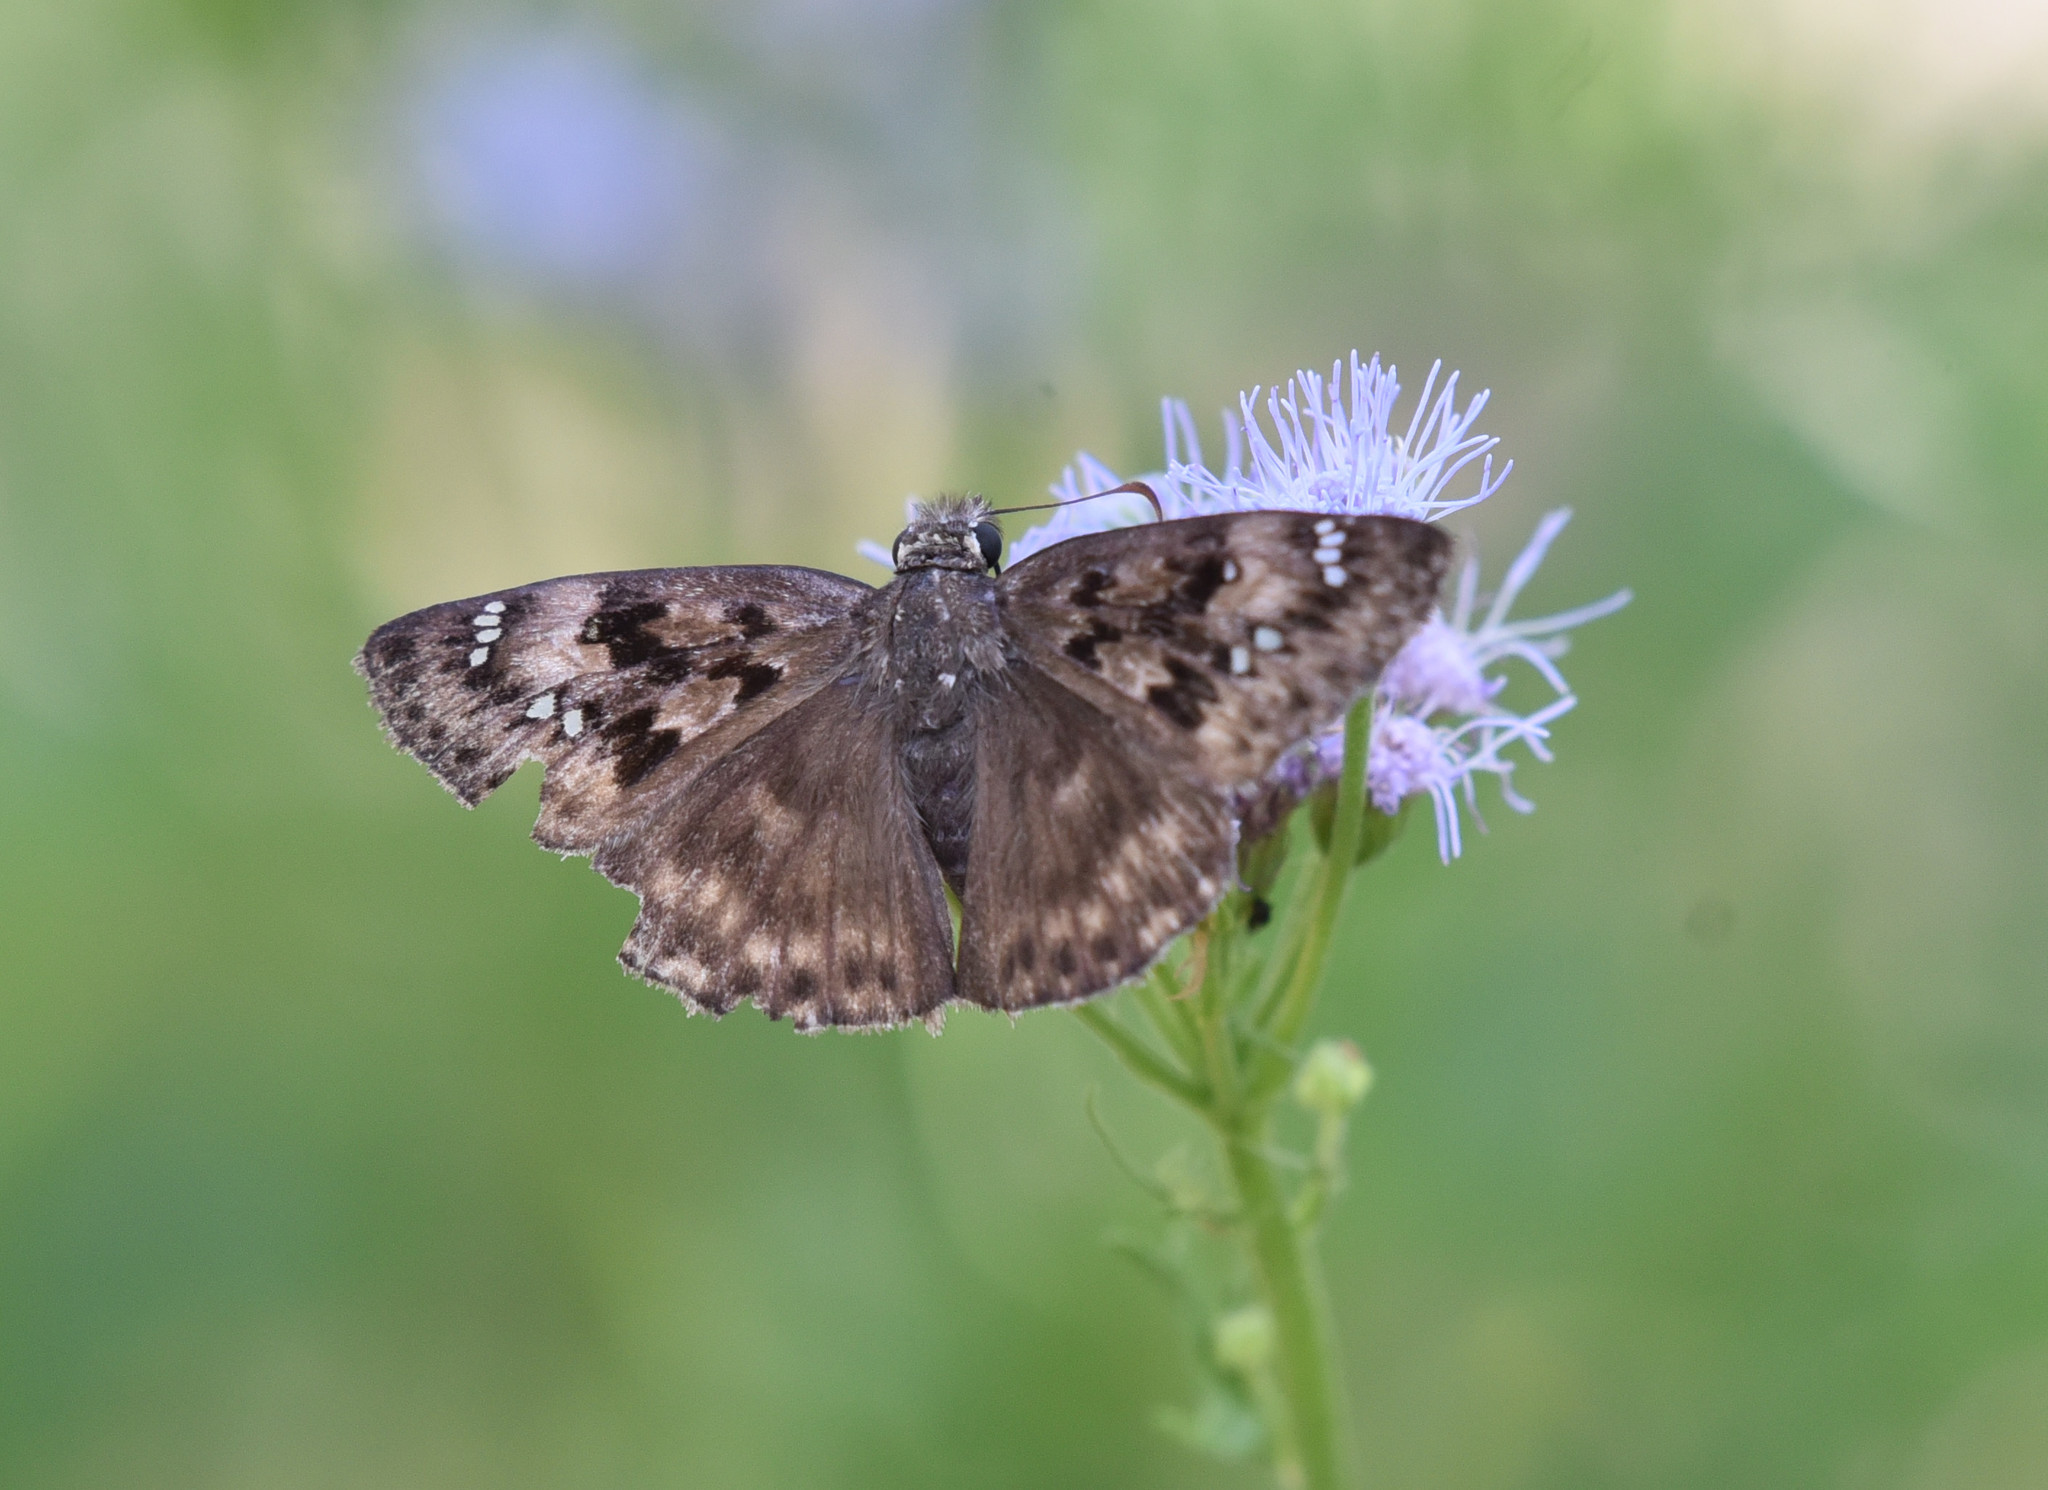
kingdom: Animalia
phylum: Arthropoda
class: Insecta
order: Lepidoptera
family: Hesperiidae
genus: Erynnis
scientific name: Erynnis horatius
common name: Horace's duskywing
